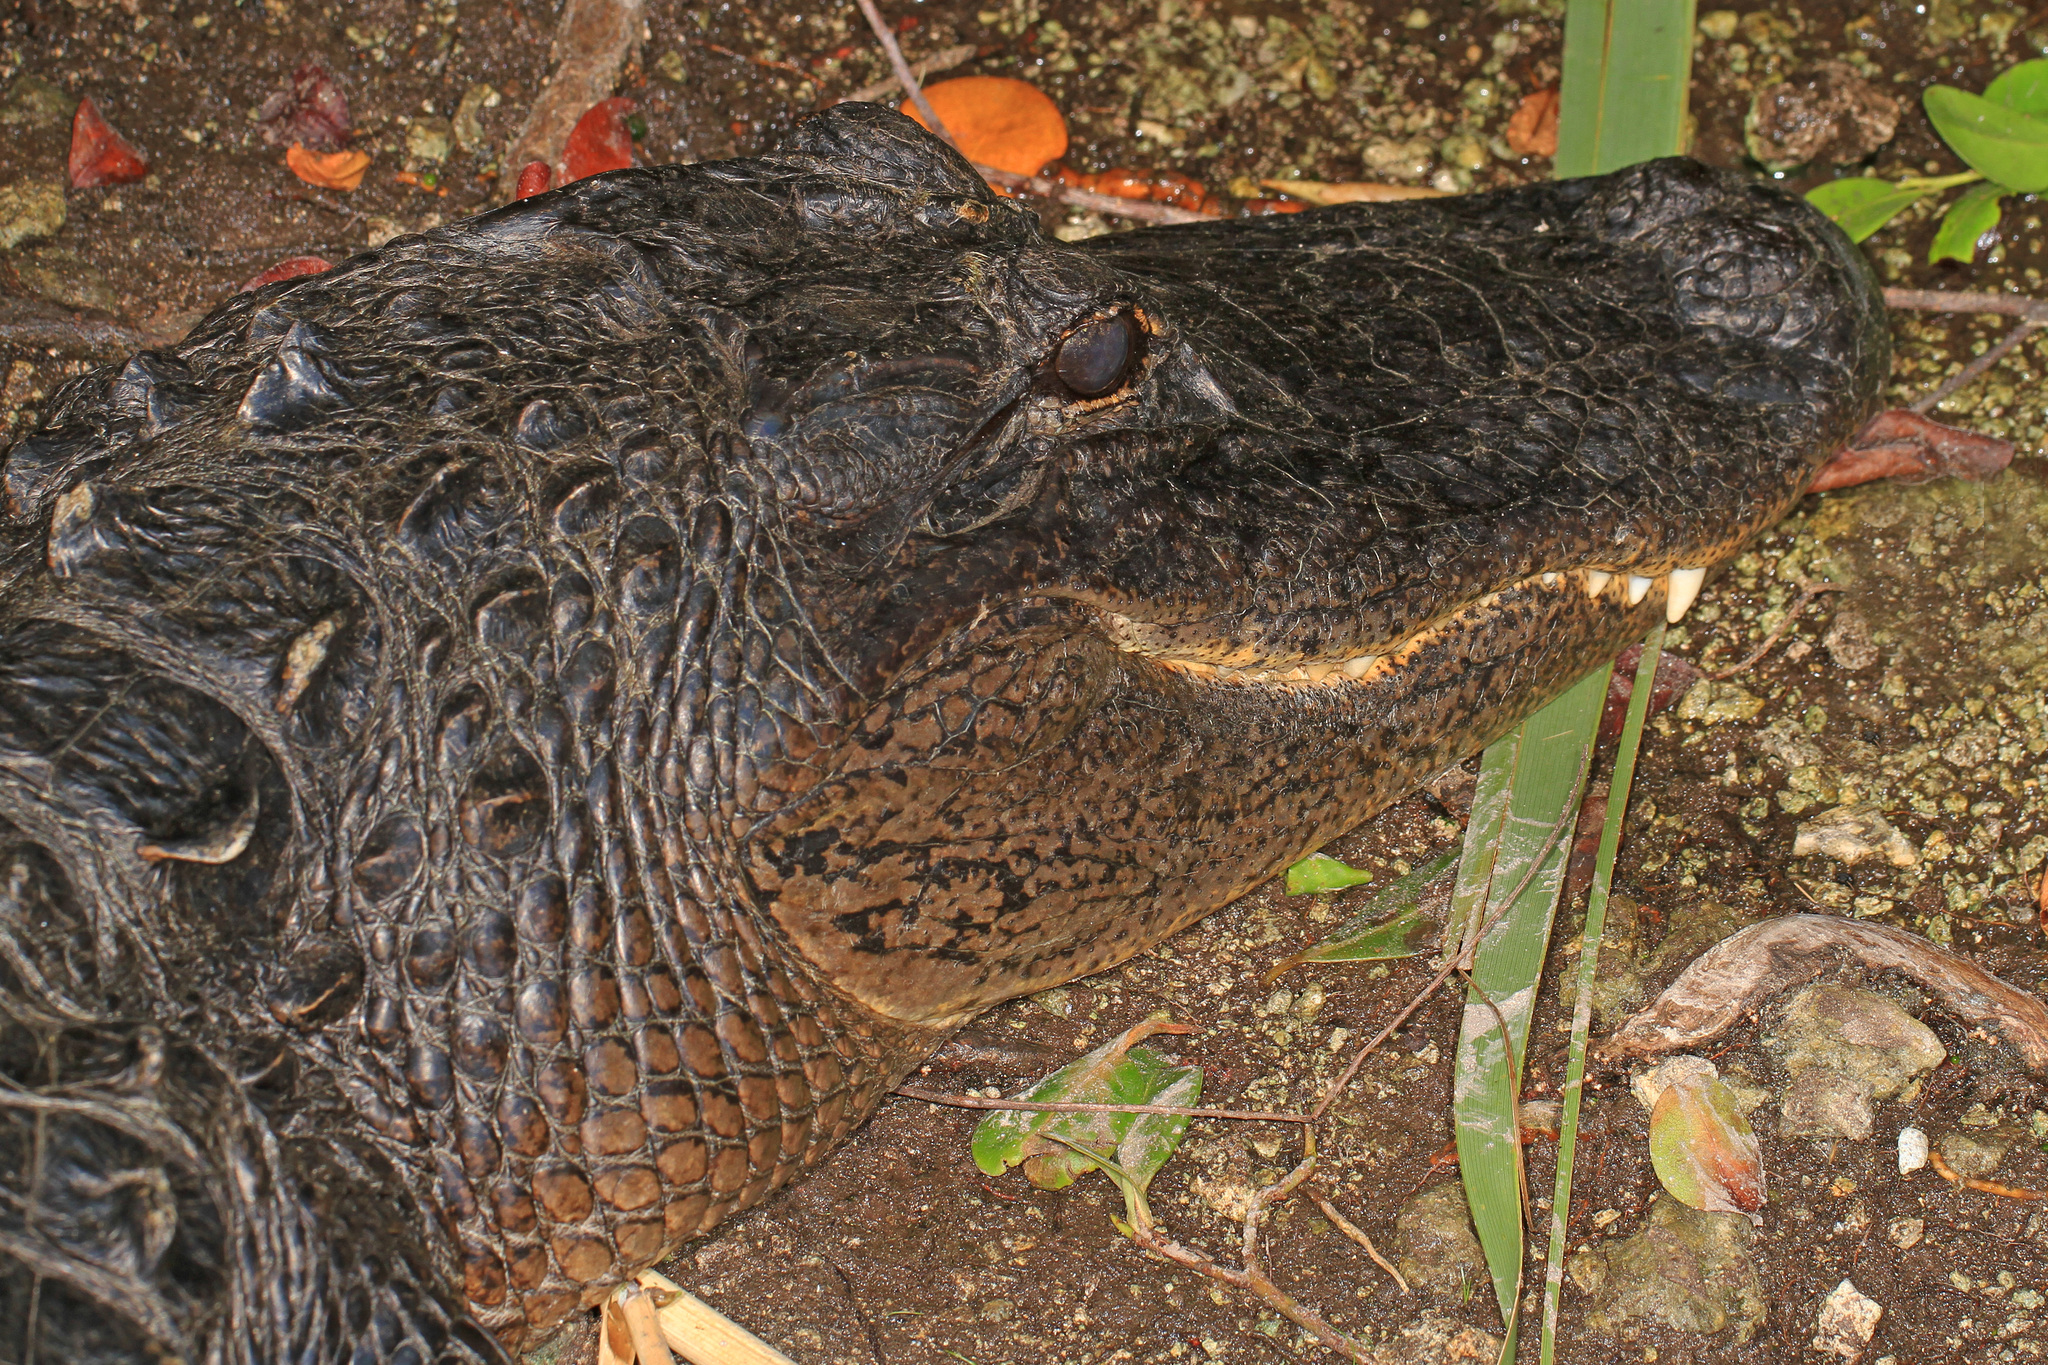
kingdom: Animalia
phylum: Chordata
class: Crocodylia
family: Alligatoridae
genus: Alligator
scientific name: Alligator mississippiensis
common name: American alligator
